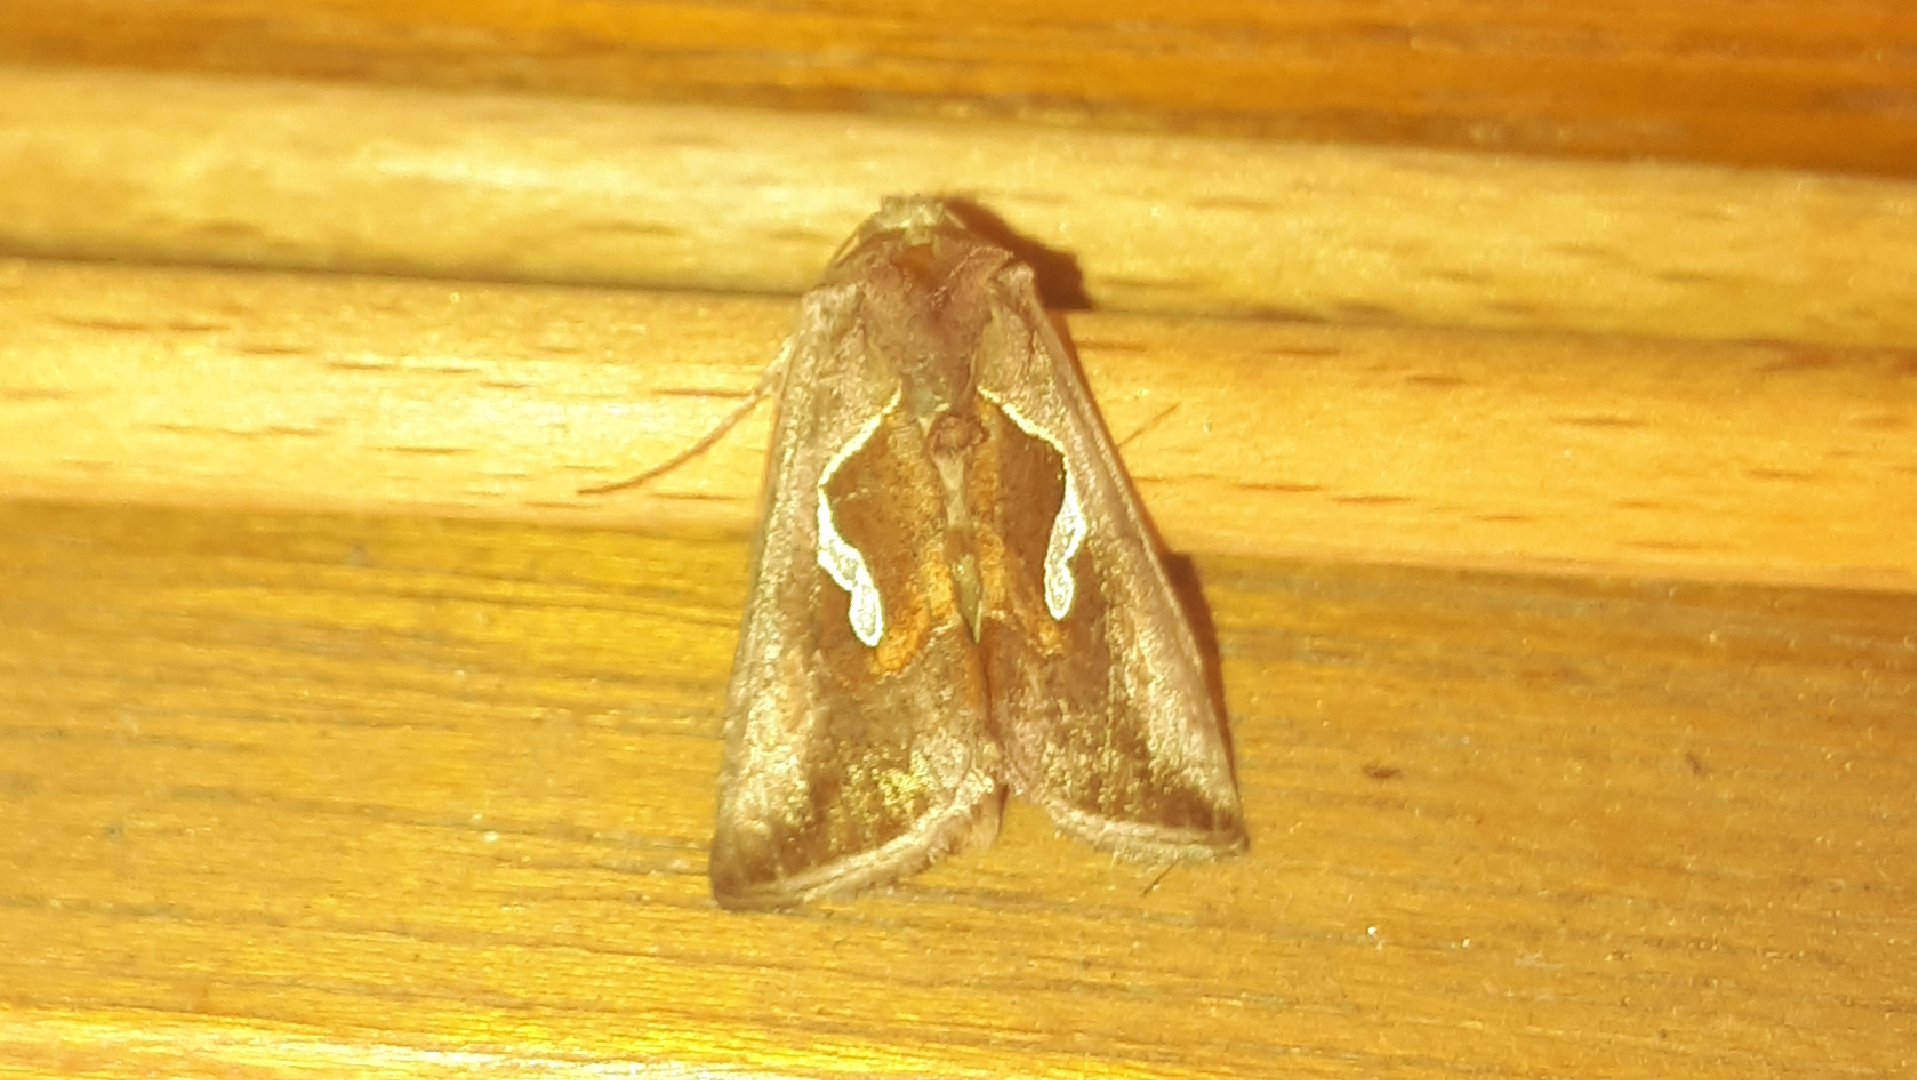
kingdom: Animalia
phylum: Arthropoda
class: Insecta
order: Lepidoptera
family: Noctuidae
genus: Macdunnoughia
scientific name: Macdunnoughia confusa
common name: Dewick's plusia
